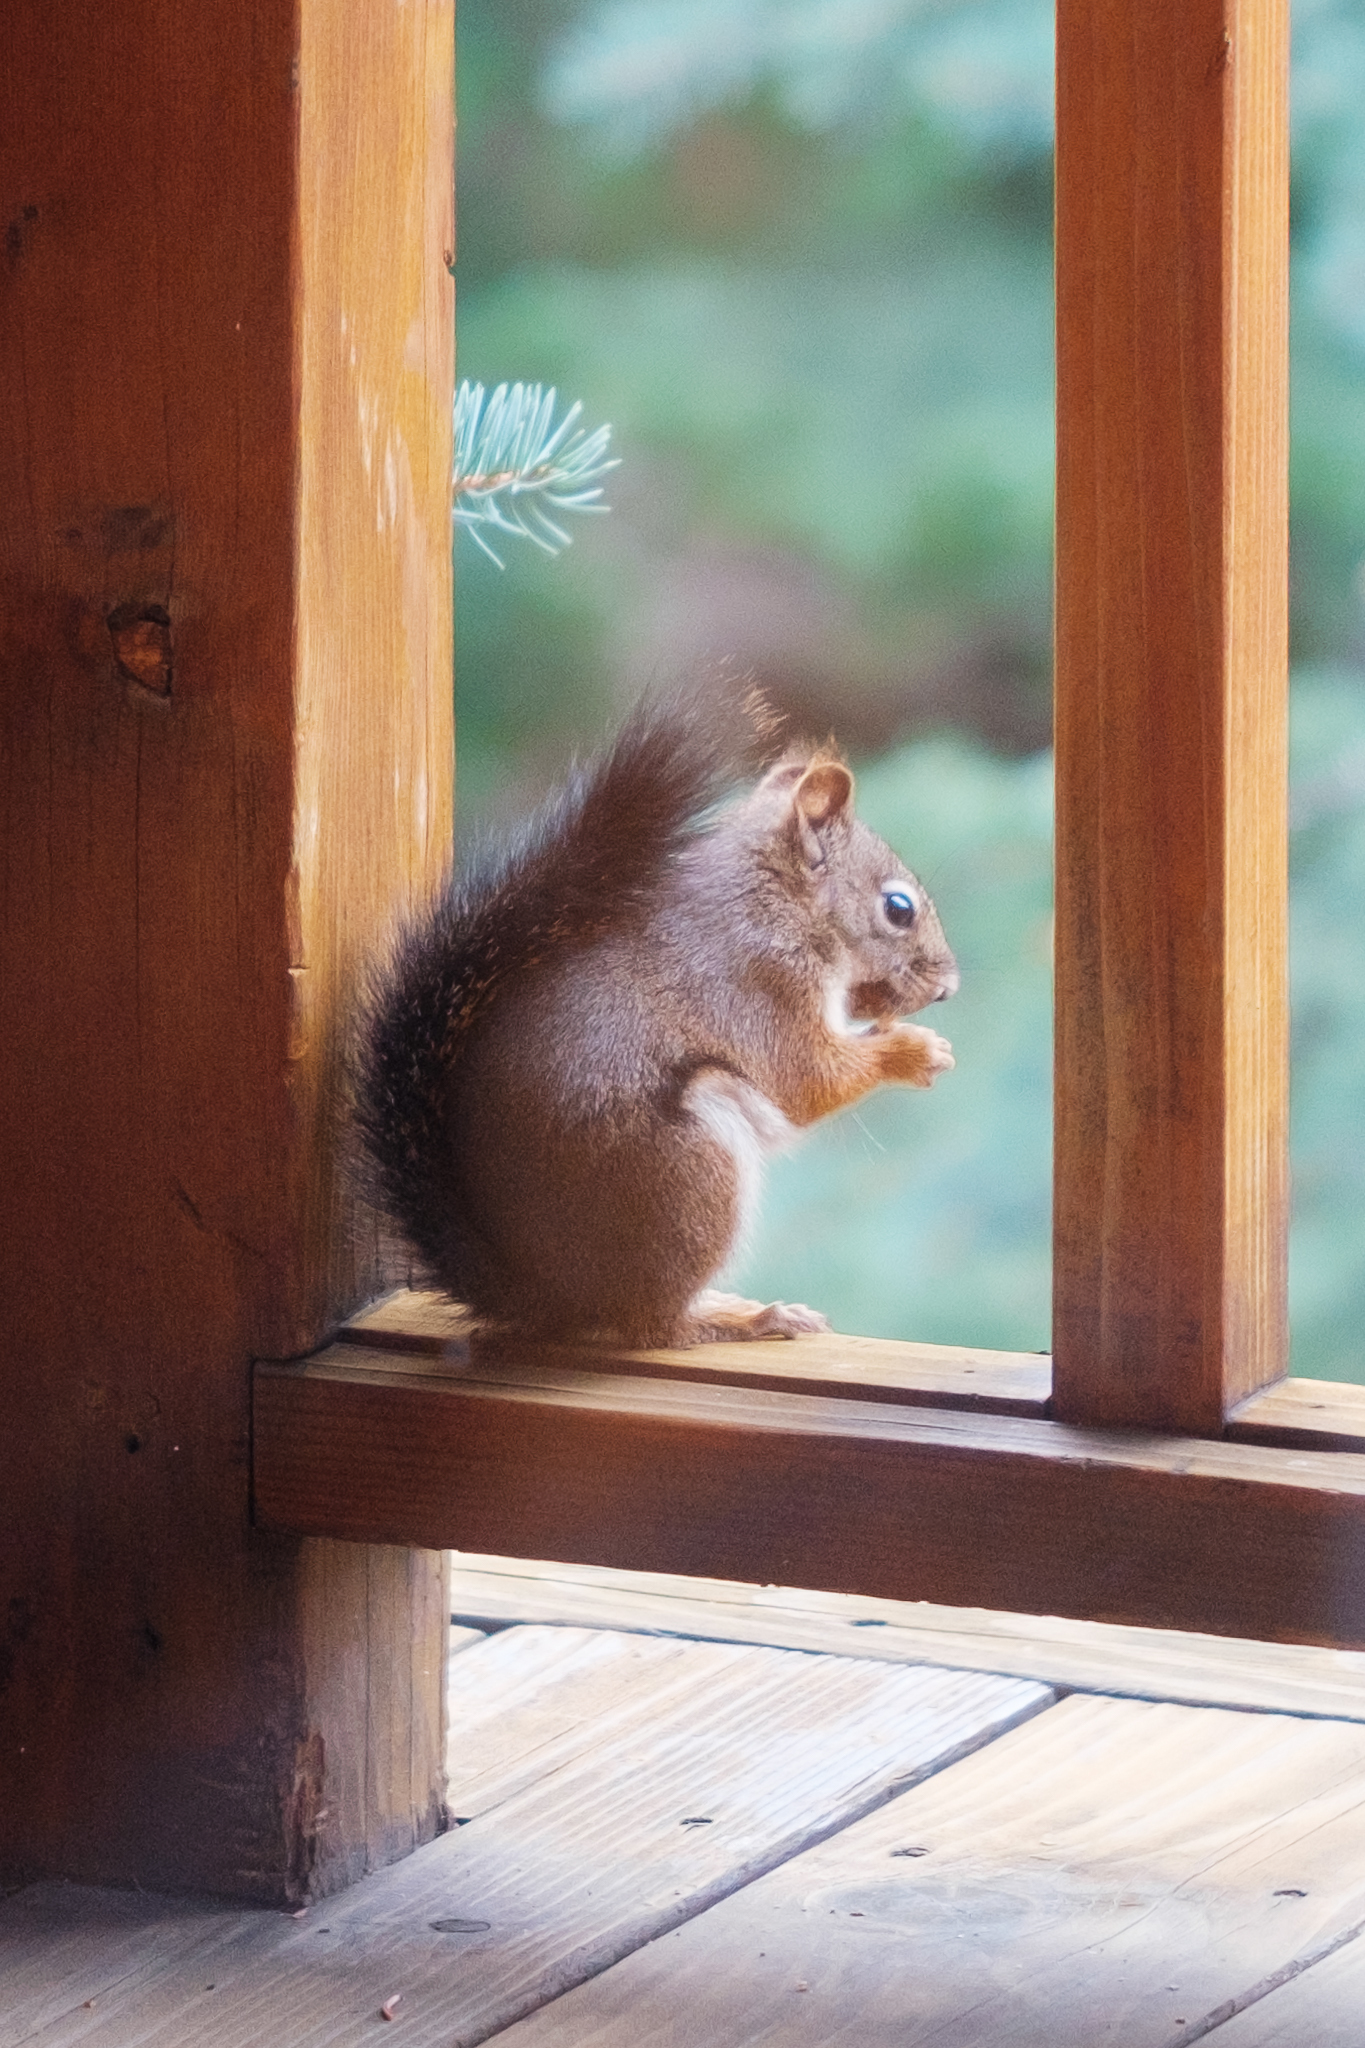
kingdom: Animalia
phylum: Chordata
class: Mammalia
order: Rodentia
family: Sciuridae
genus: Tamiasciurus
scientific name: Tamiasciurus hudsonicus
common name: Red squirrel
